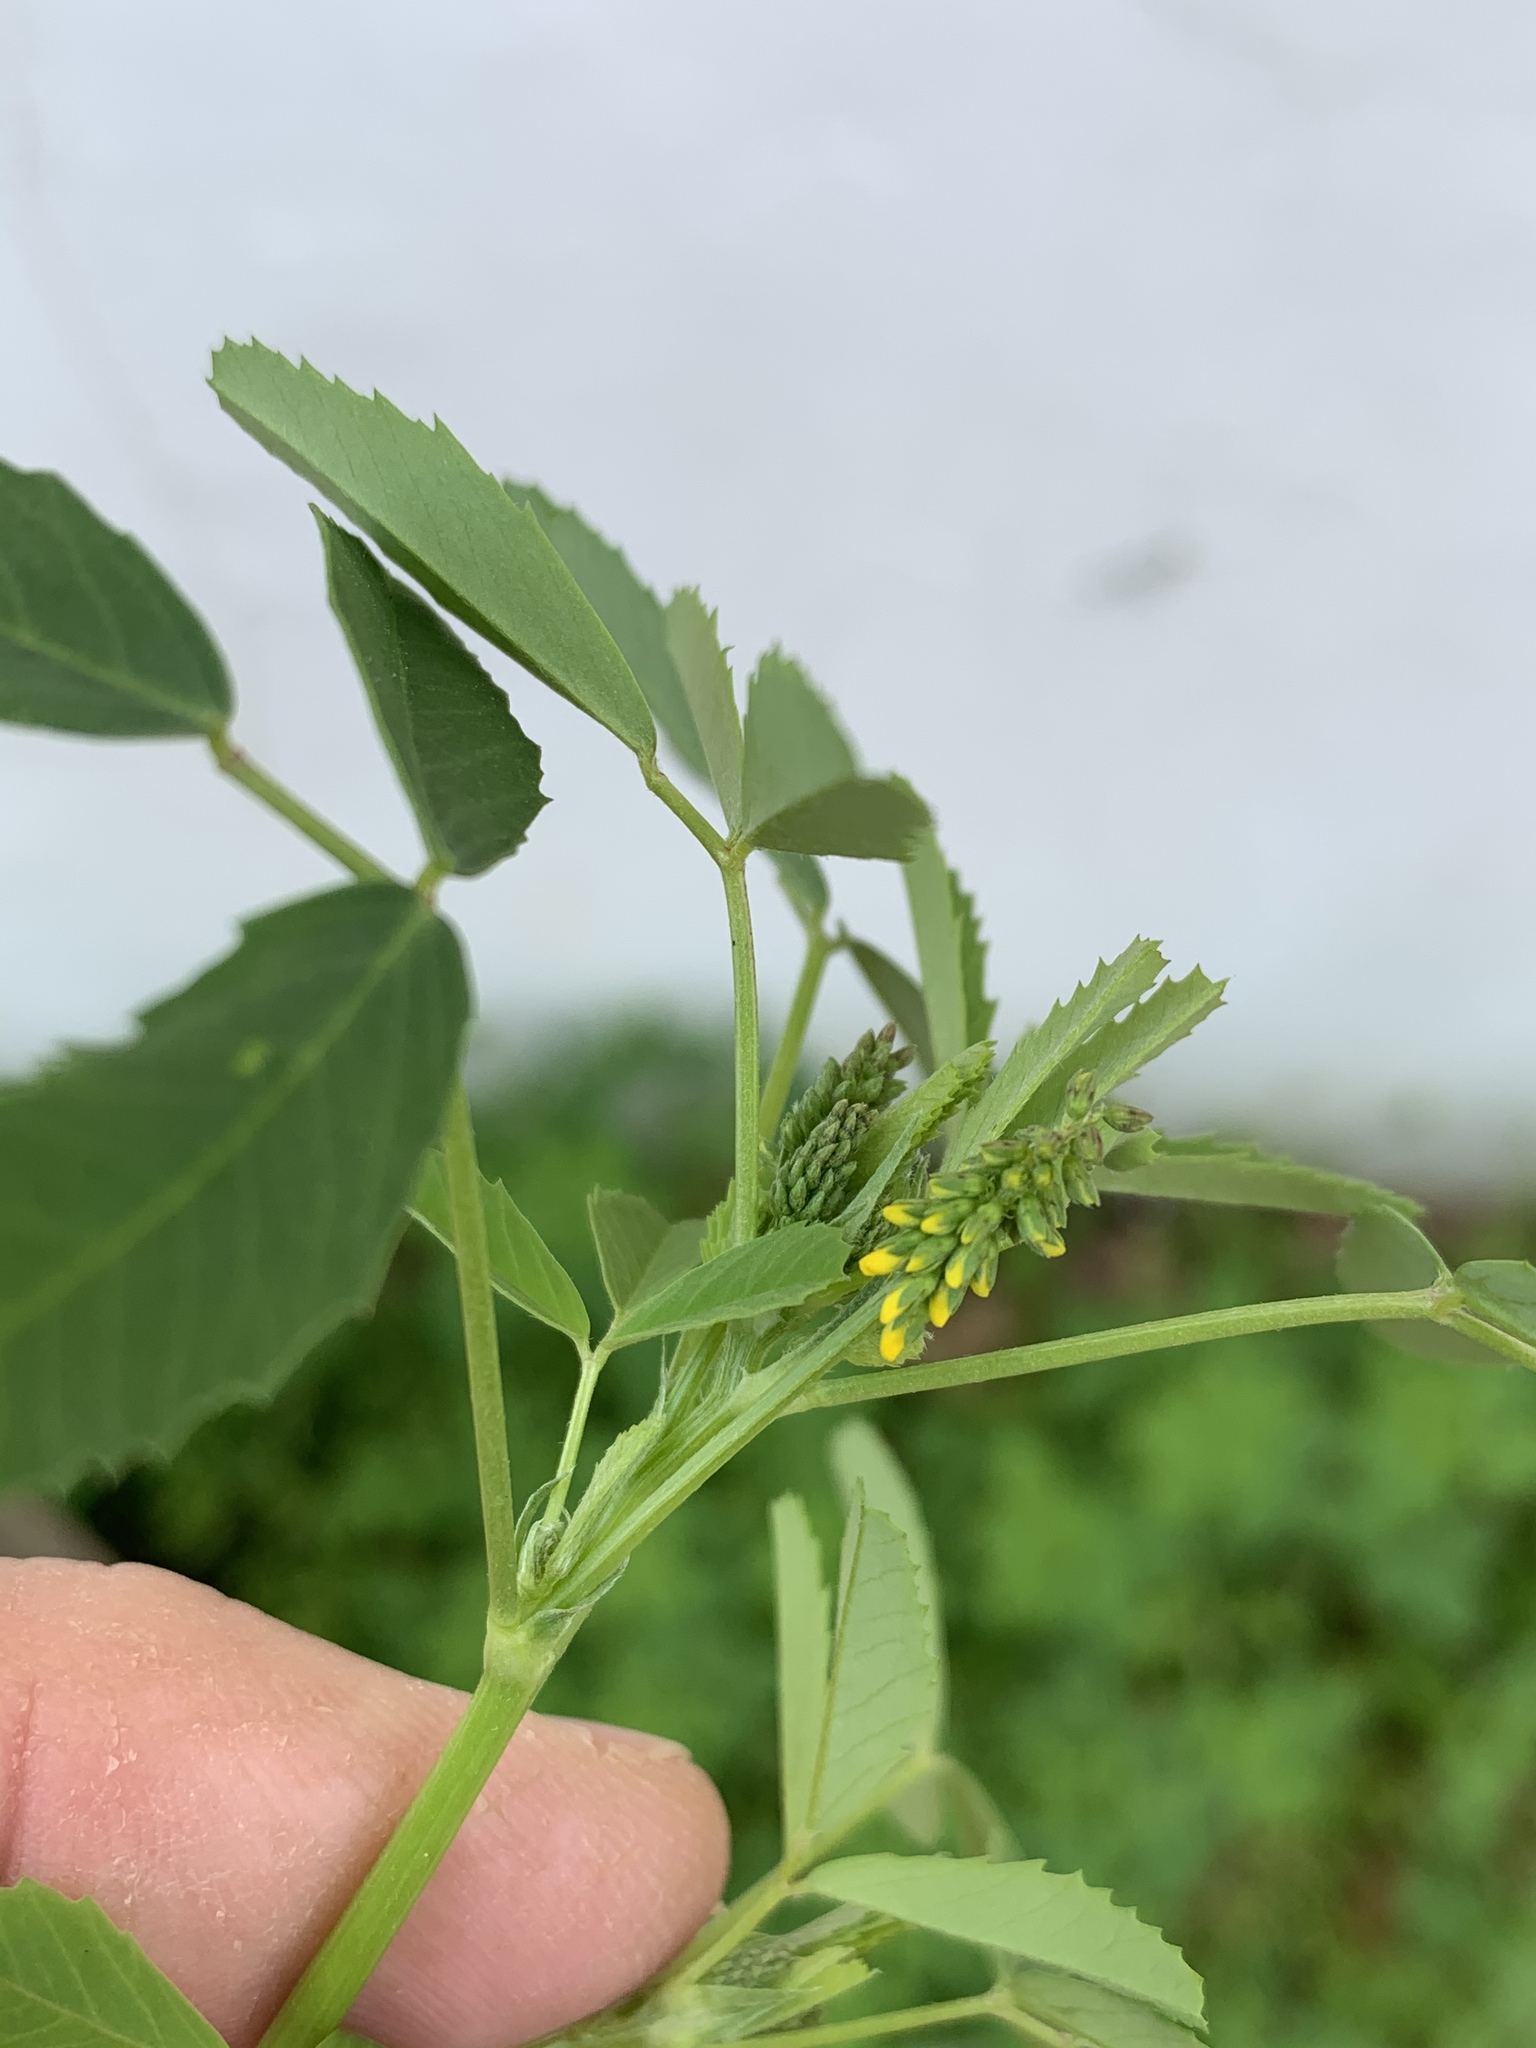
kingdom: Plantae
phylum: Tracheophyta
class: Magnoliopsida
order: Fabales
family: Fabaceae
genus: Melilotus
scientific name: Melilotus indicus
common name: Small melilot
